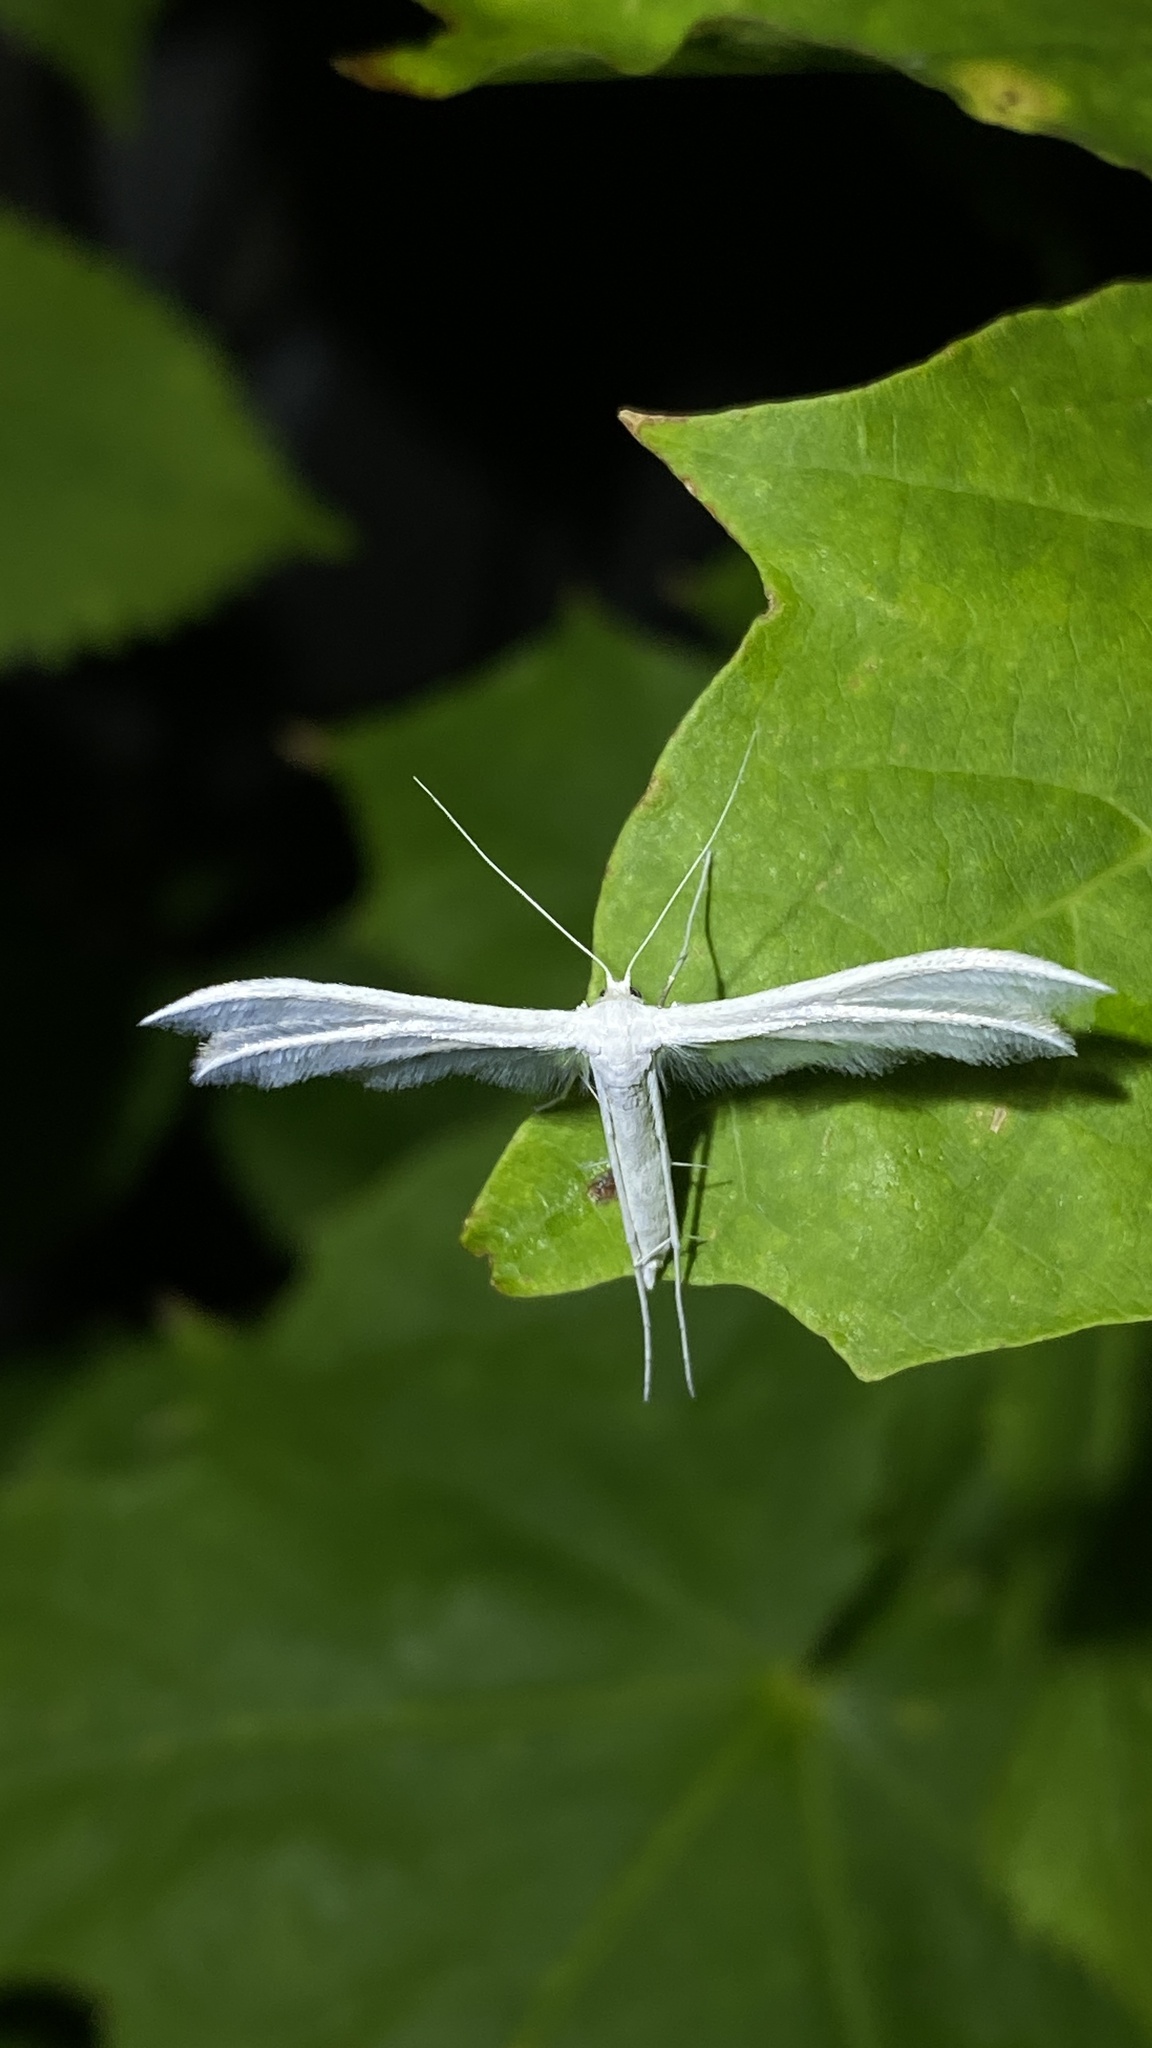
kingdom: Animalia
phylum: Arthropoda
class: Insecta
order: Lepidoptera
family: Pterophoridae
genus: Pterophorus
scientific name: Pterophorus pentadactyla
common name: White plume moth
